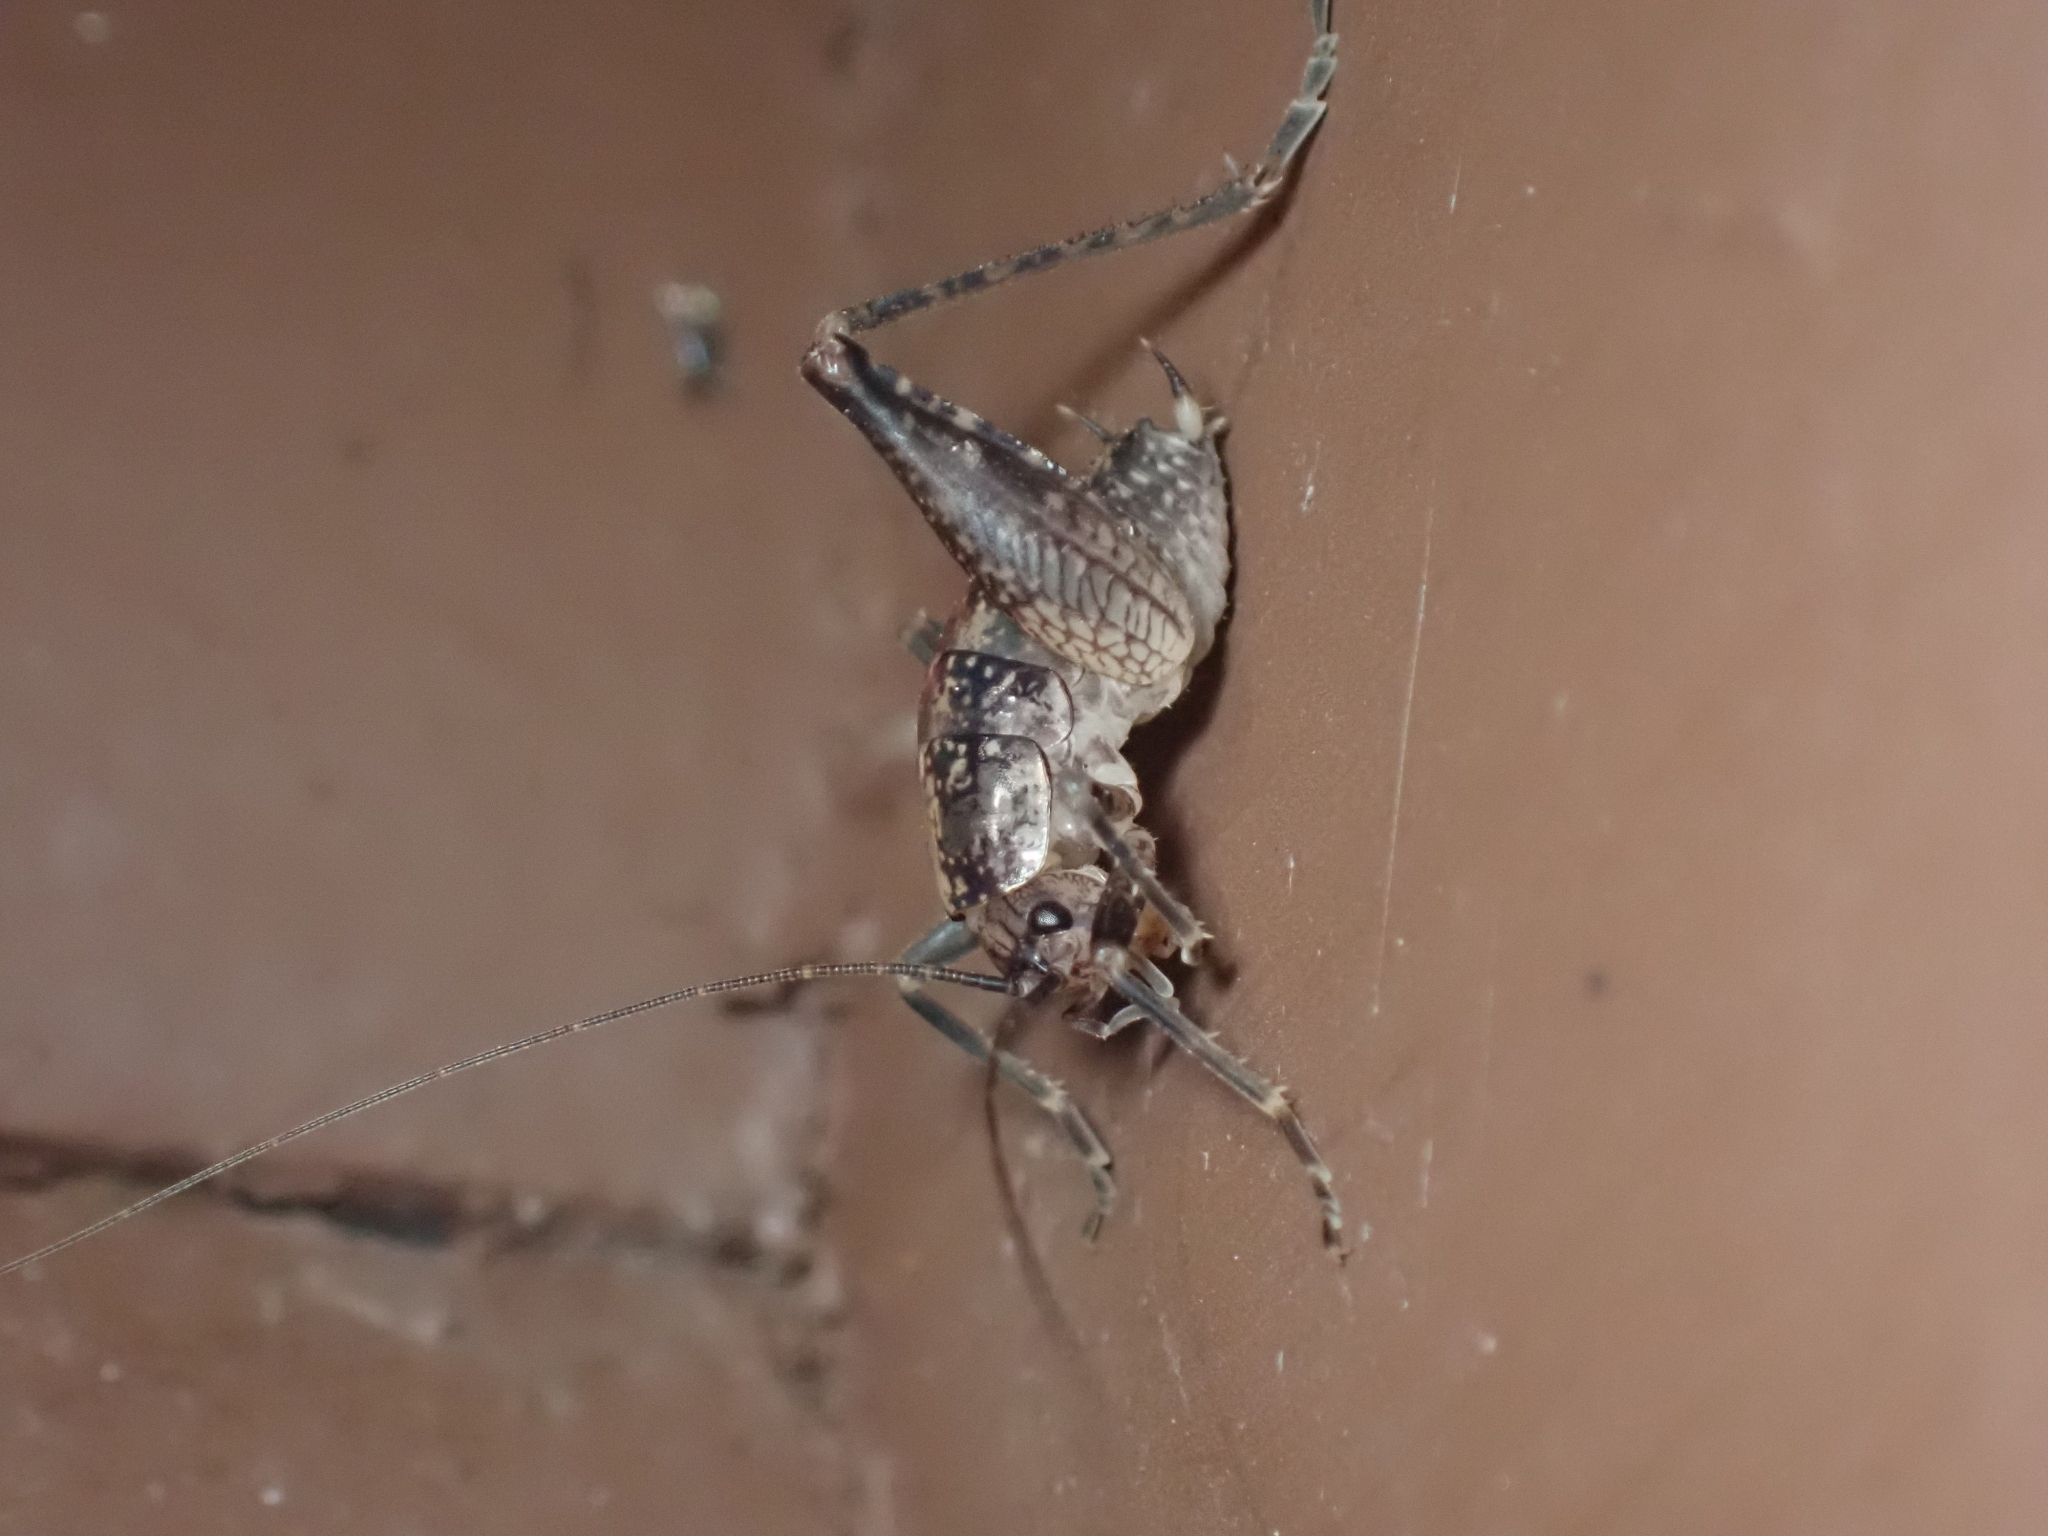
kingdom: Animalia
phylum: Arthropoda
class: Insecta
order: Orthoptera
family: Rhaphidophoridae
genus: Pristoceuthophilus
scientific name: Pristoceuthophilus celatus
